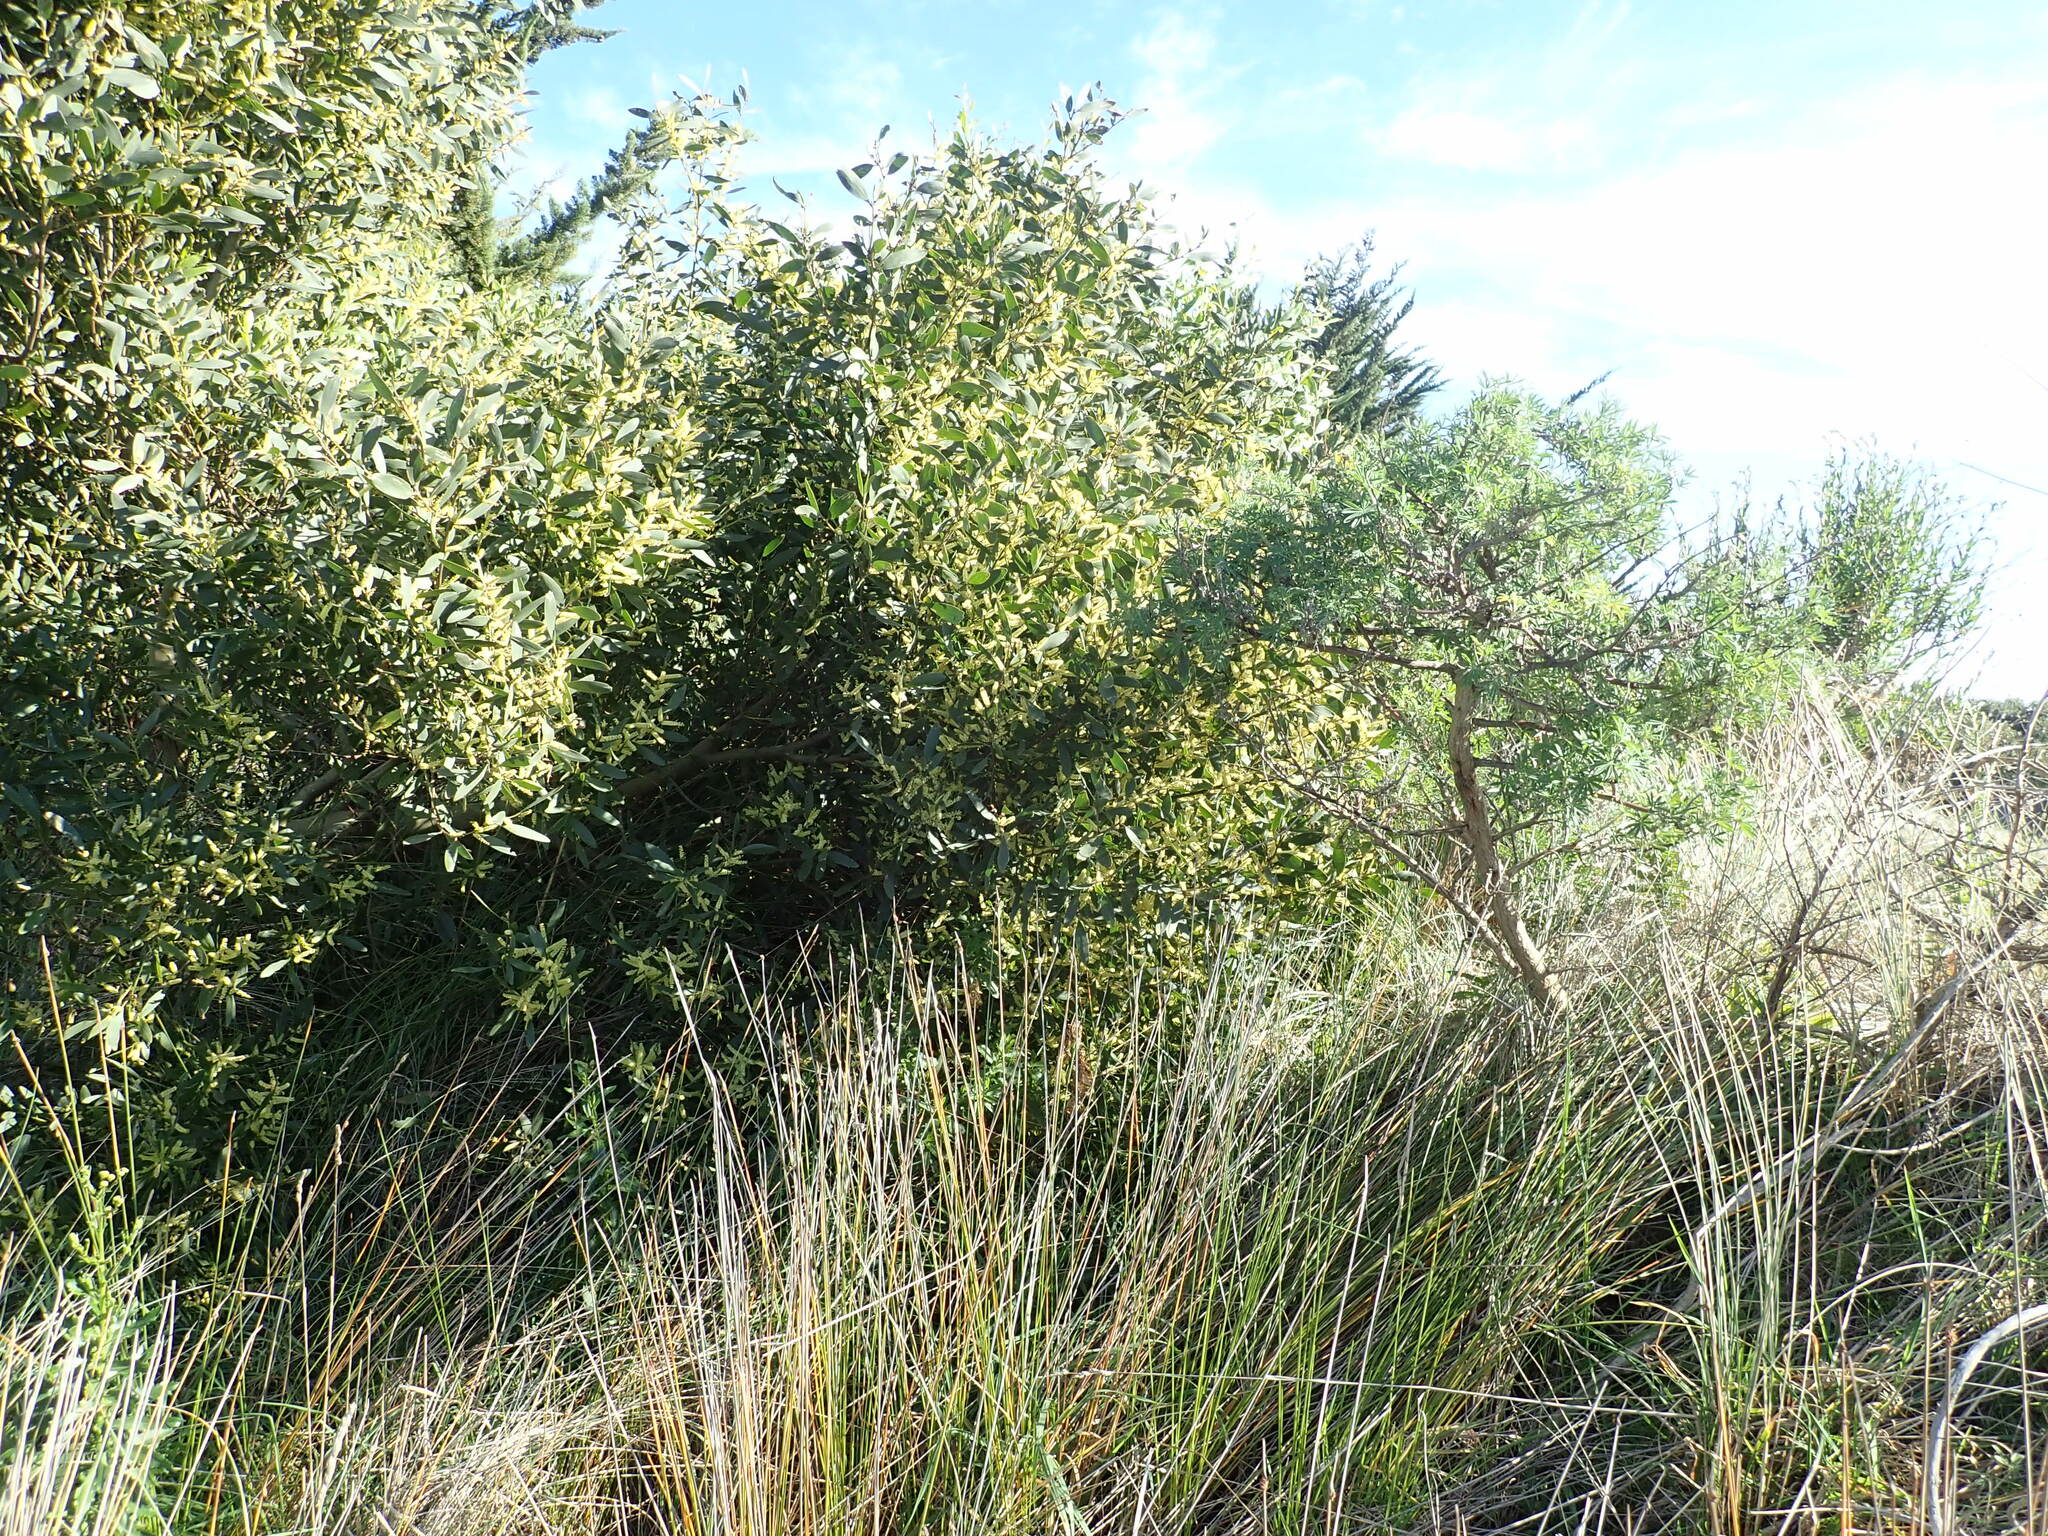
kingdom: Plantae
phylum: Tracheophyta
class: Magnoliopsida
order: Fabales
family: Fabaceae
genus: Acacia
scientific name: Acacia longifolia
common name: Sydney golden wattle
